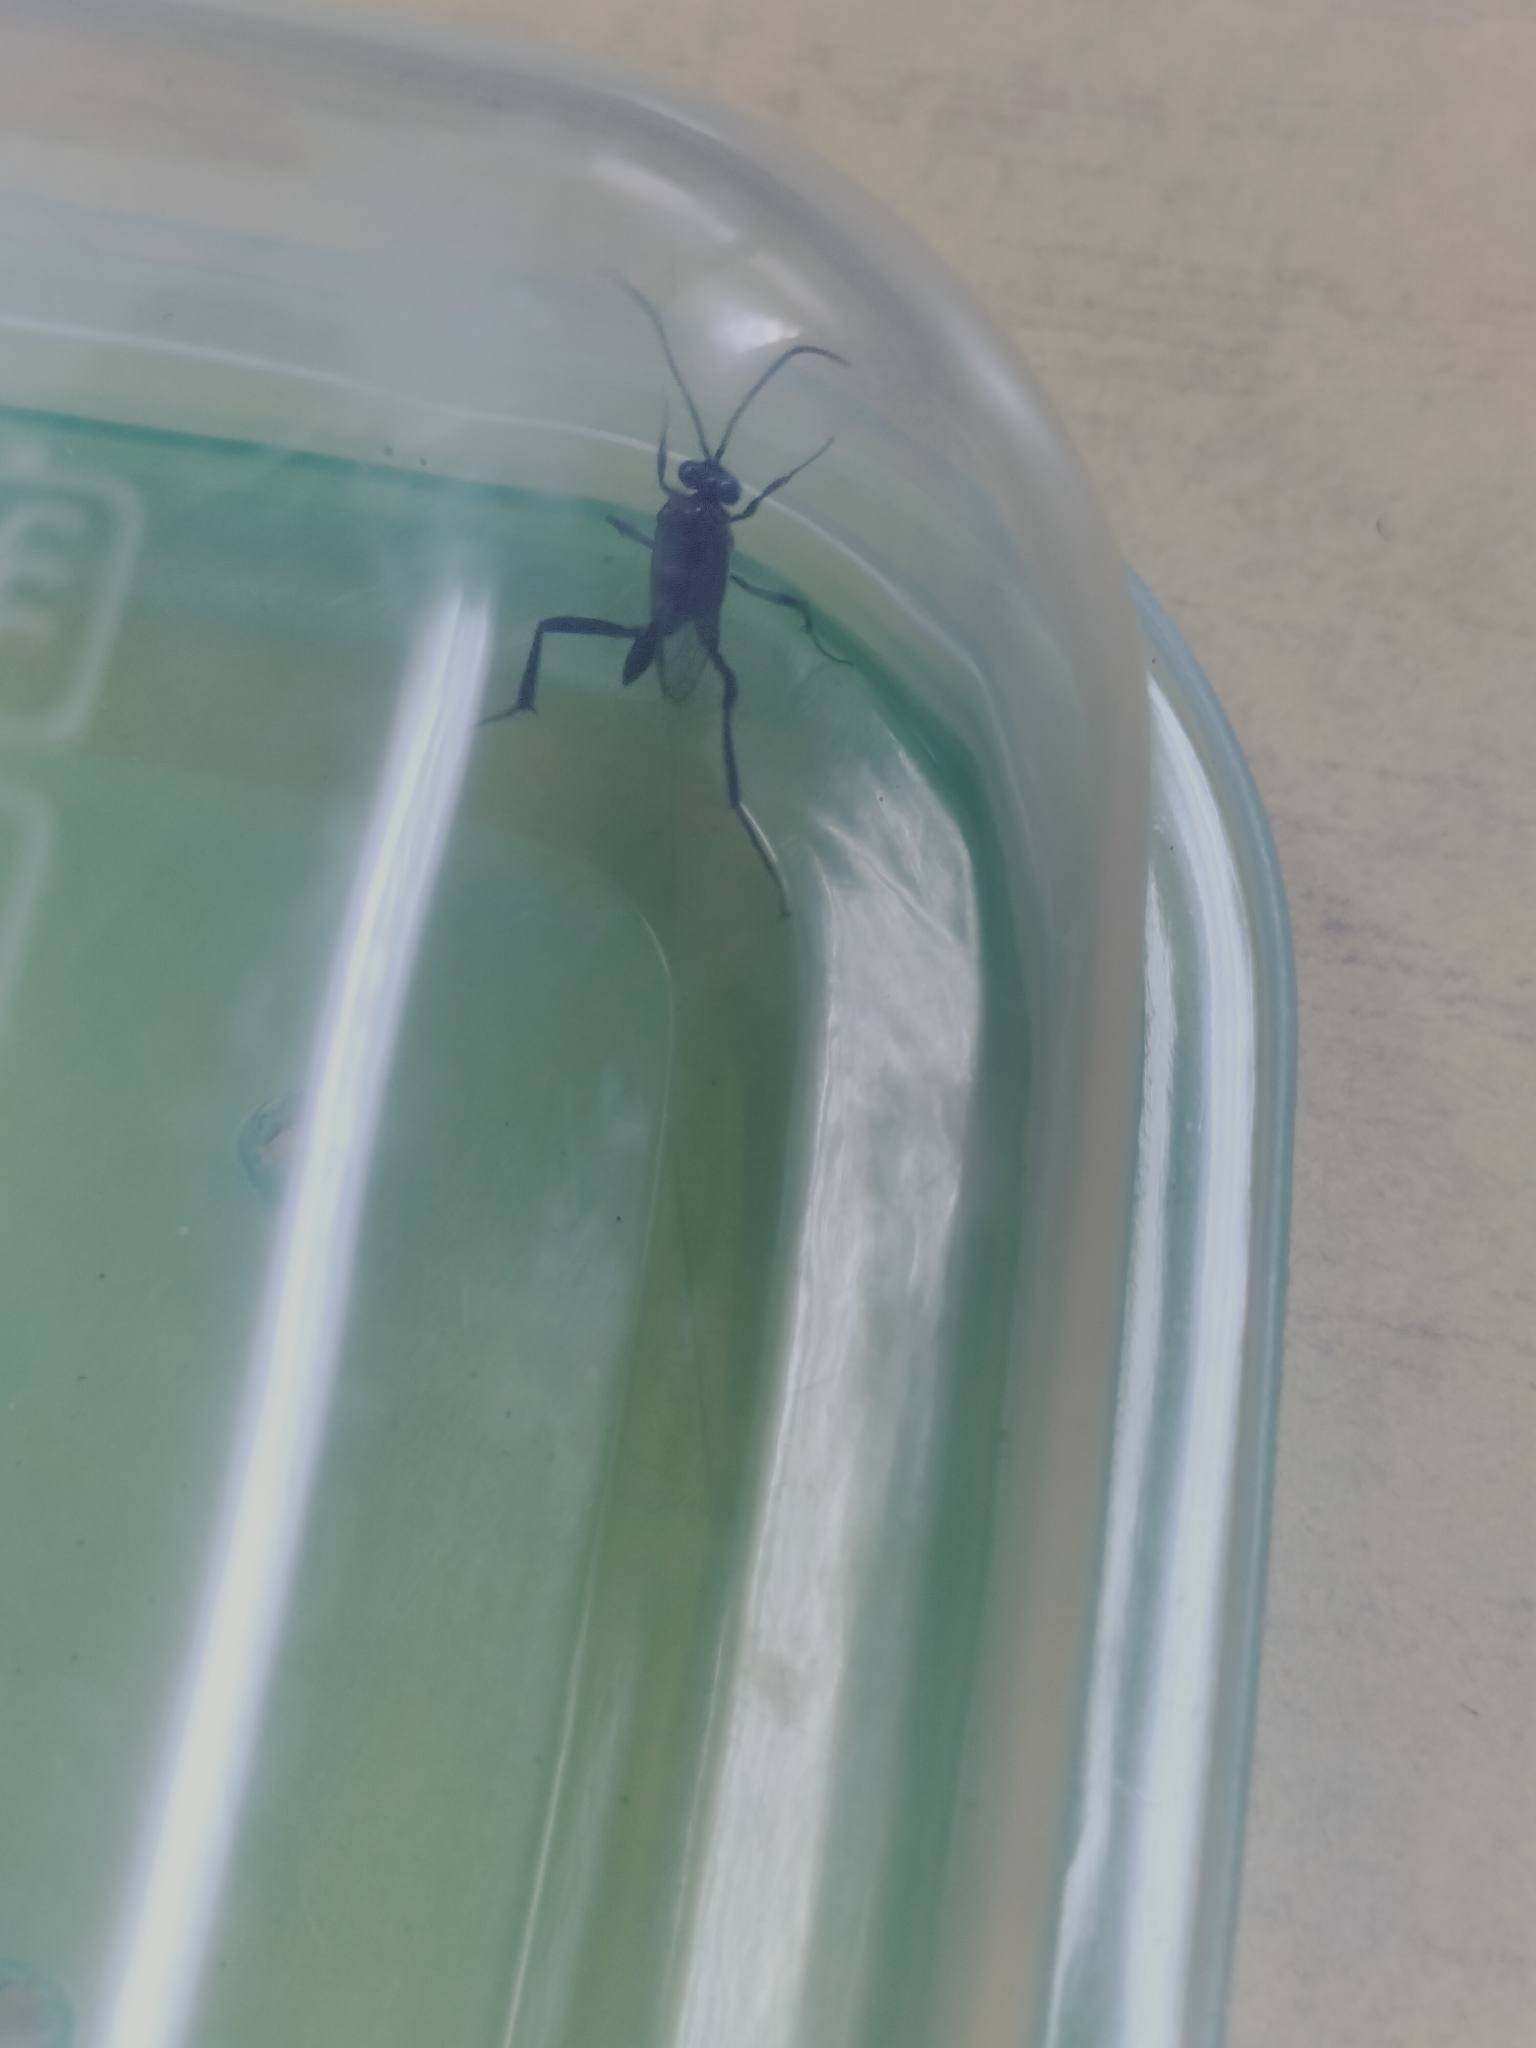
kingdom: Animalia
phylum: Arthropoda
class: Insecta
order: Hymenoptera
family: Evaniidae
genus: Evania
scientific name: Evania appendigaster
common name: Ensign wasp
